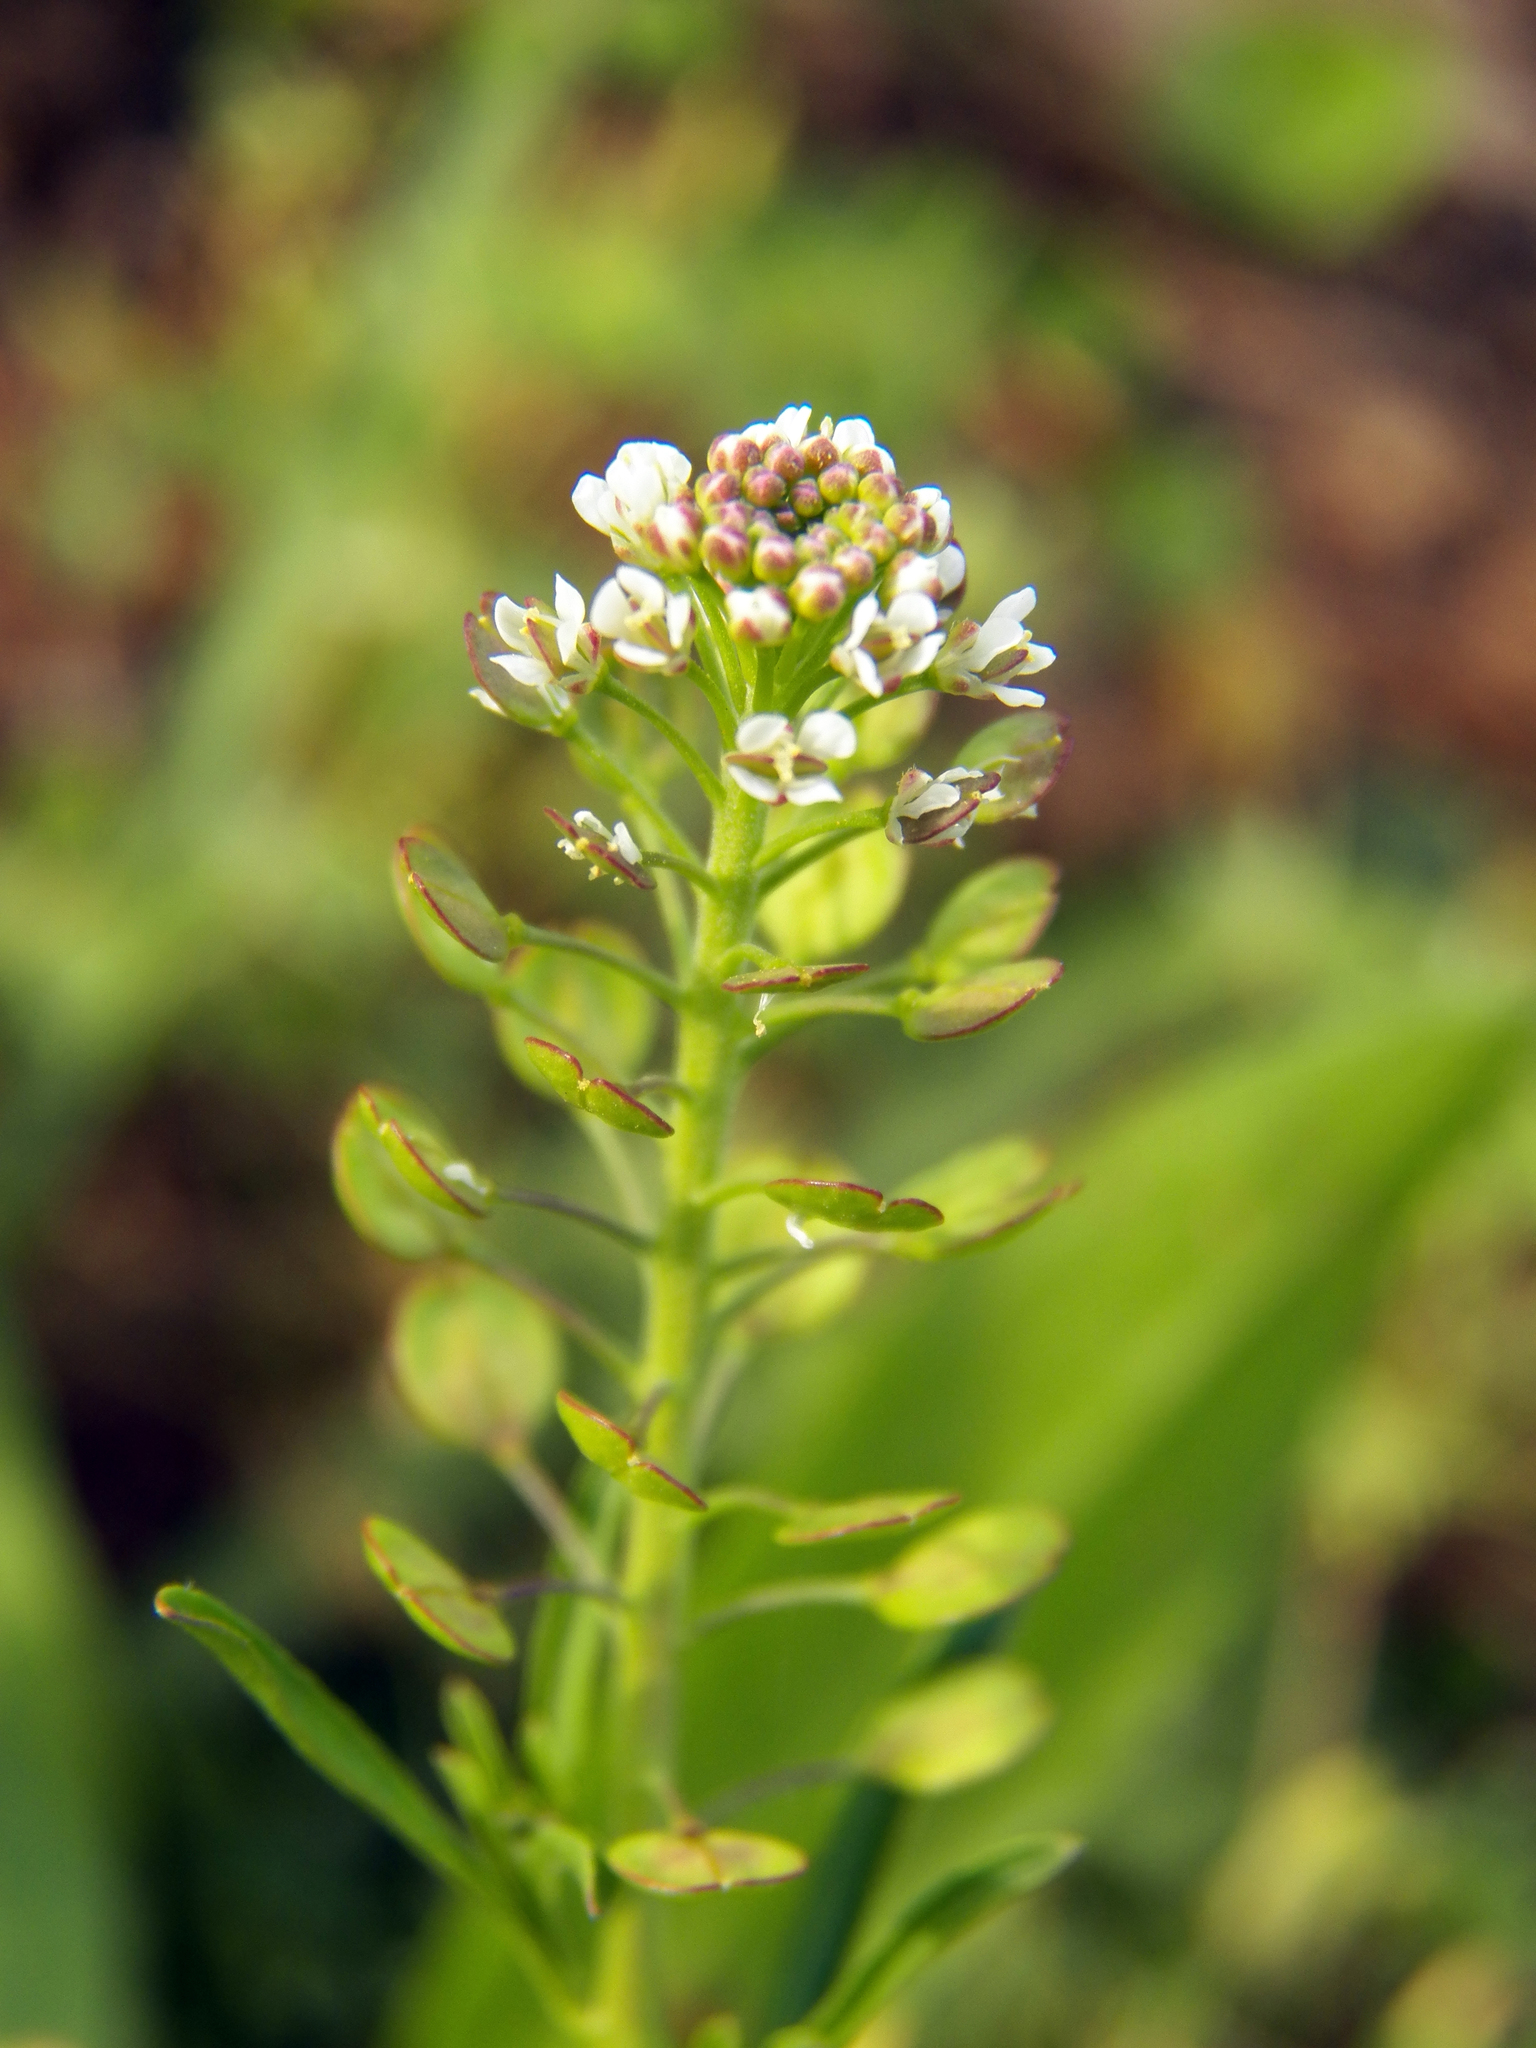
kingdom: Plantae
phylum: Tracheophyta
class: Magnoliopsida
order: Brassicales
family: Brassicaceae
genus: Lepidium
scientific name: Lepidium virginicum
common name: Least pepperwort
